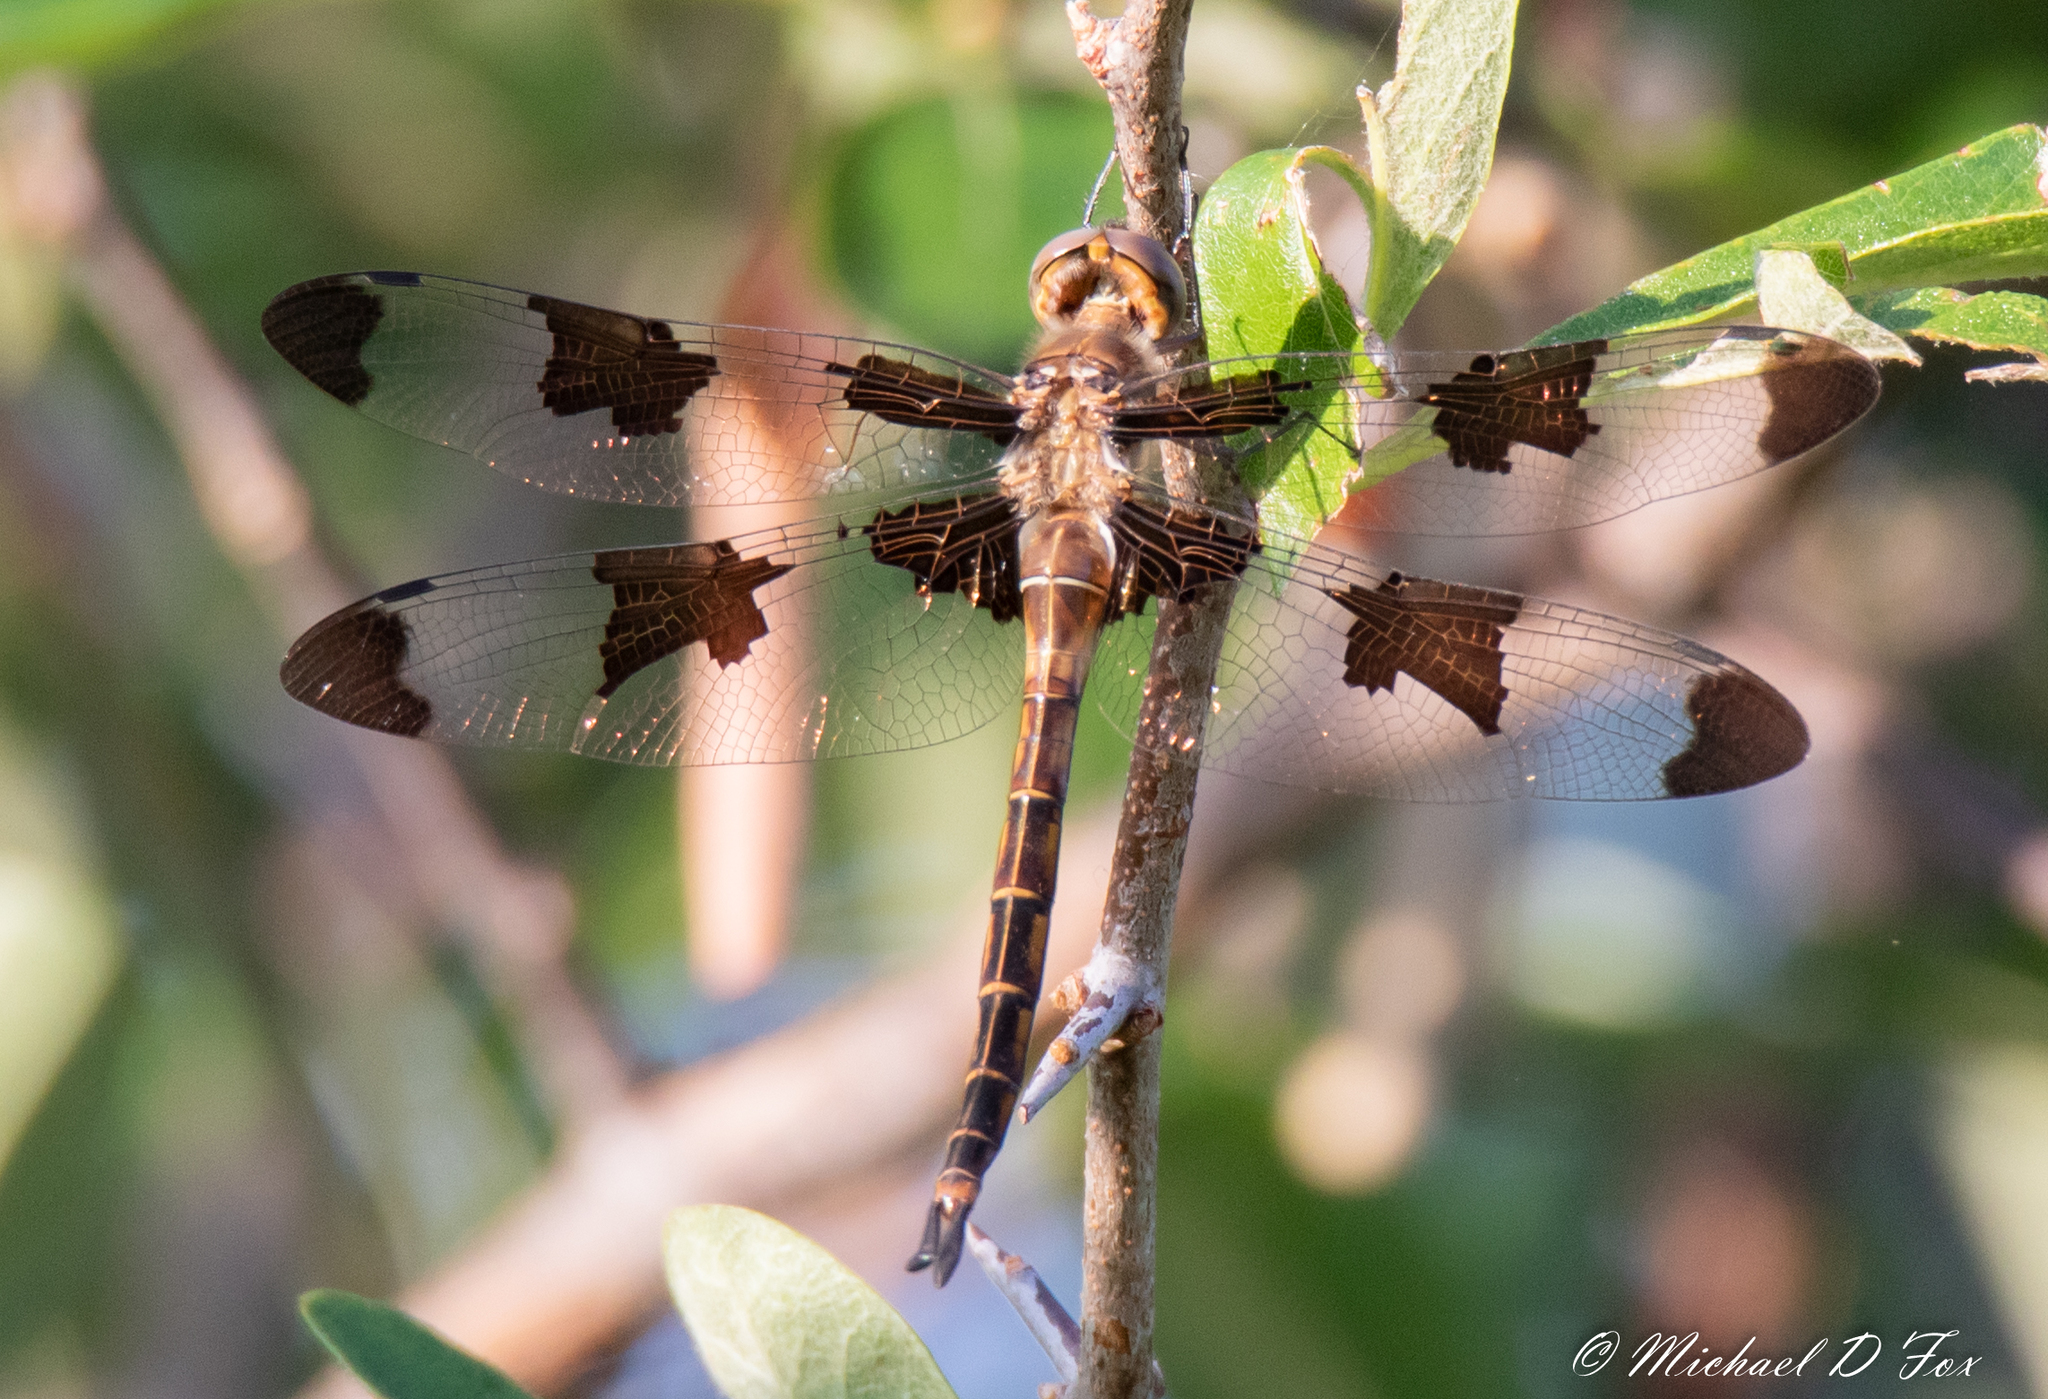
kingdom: Animalia
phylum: Arthropoda
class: Insecta
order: Odonata
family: Corduliidae
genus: Epitheca
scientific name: Epitheca princeps
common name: Prince baskettail
